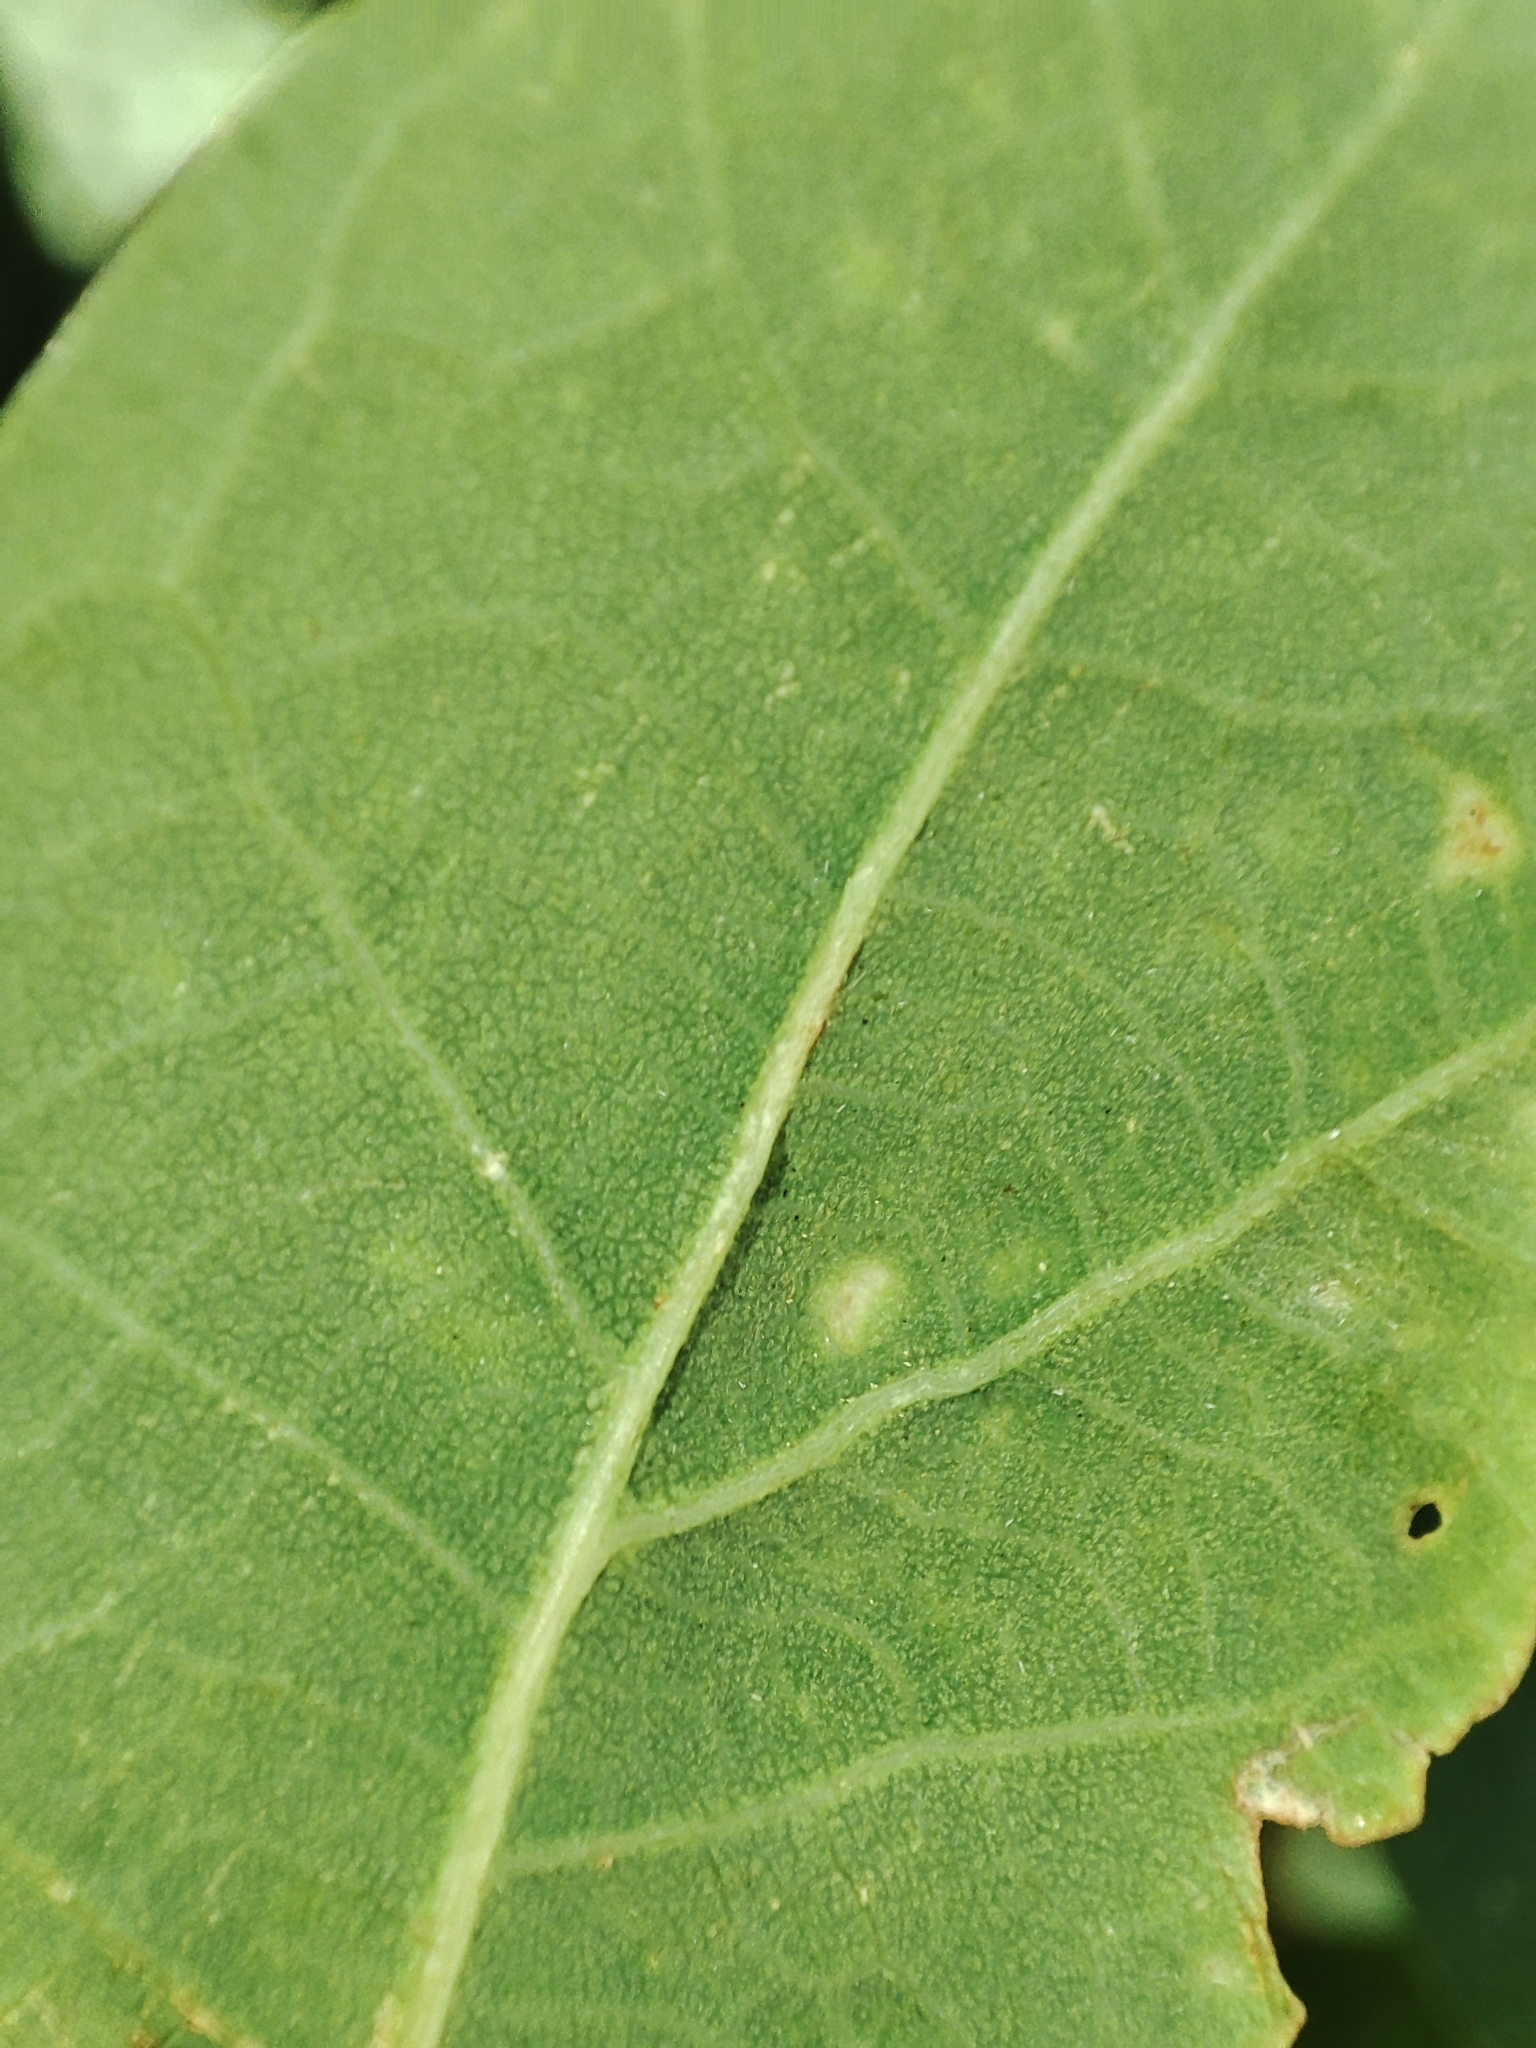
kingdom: Plantae
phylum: Tracheophyta
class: Magnoliopsida
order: Fagales
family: Fagaceae
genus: Quercus
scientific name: Quercus robur
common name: Pedunculate oak
